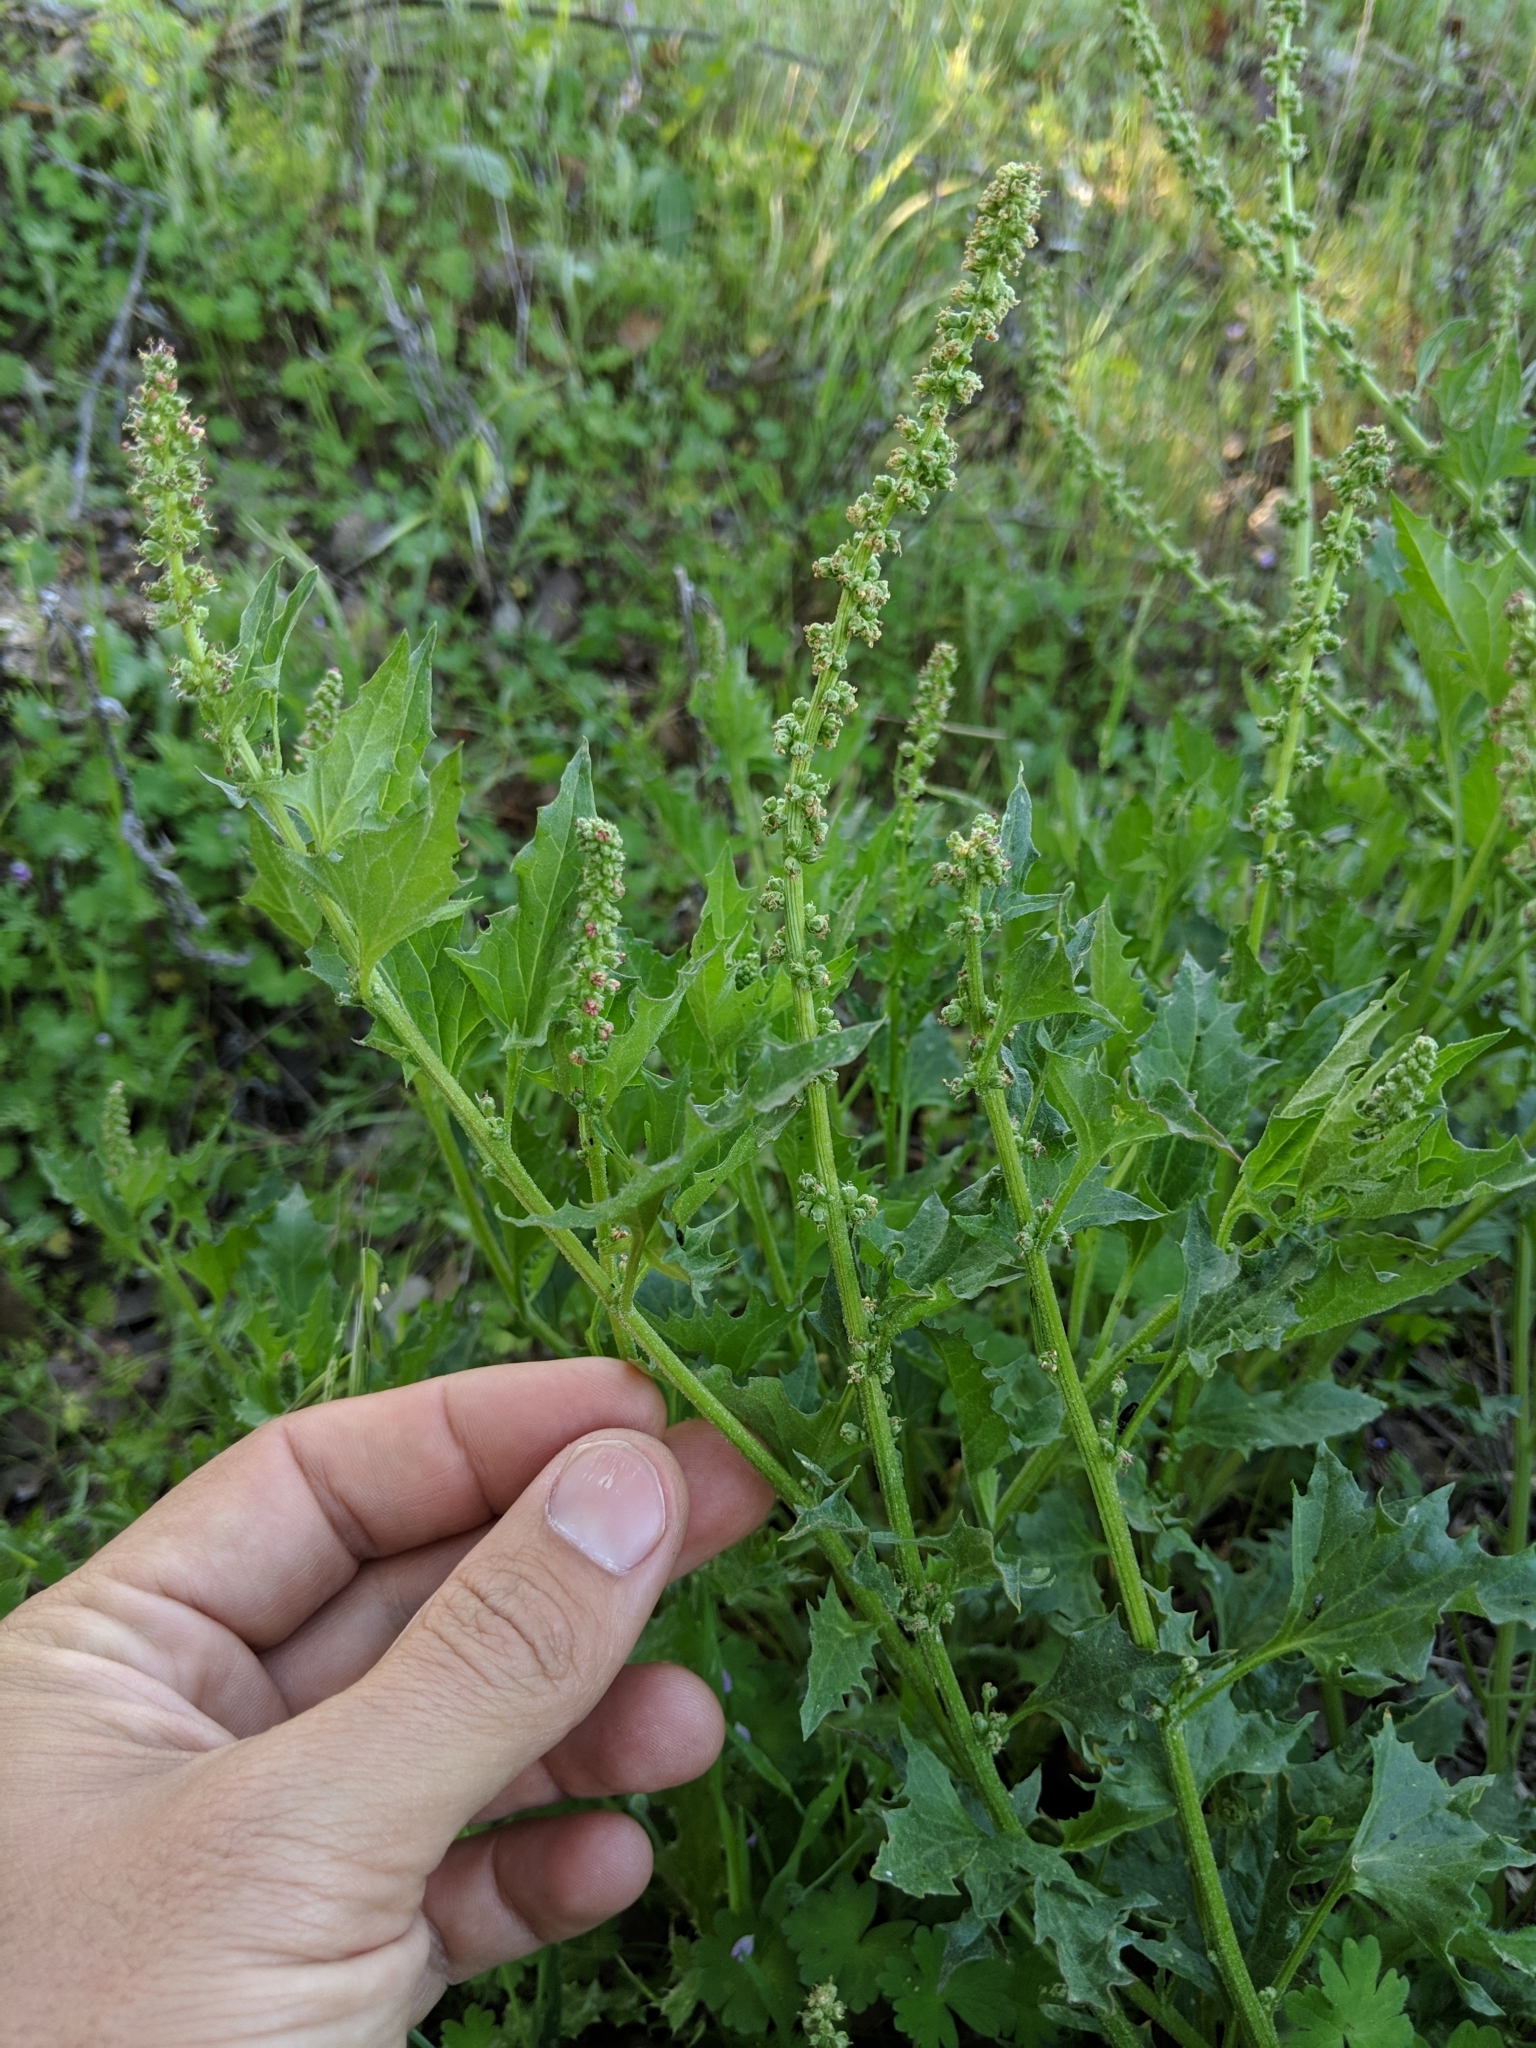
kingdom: Plantae
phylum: Tracheophyta
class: Magnoliopsida
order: Caryophyllales
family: Amaranthaceae
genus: Blitum
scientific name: Blitum californicum
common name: California goosefoot
